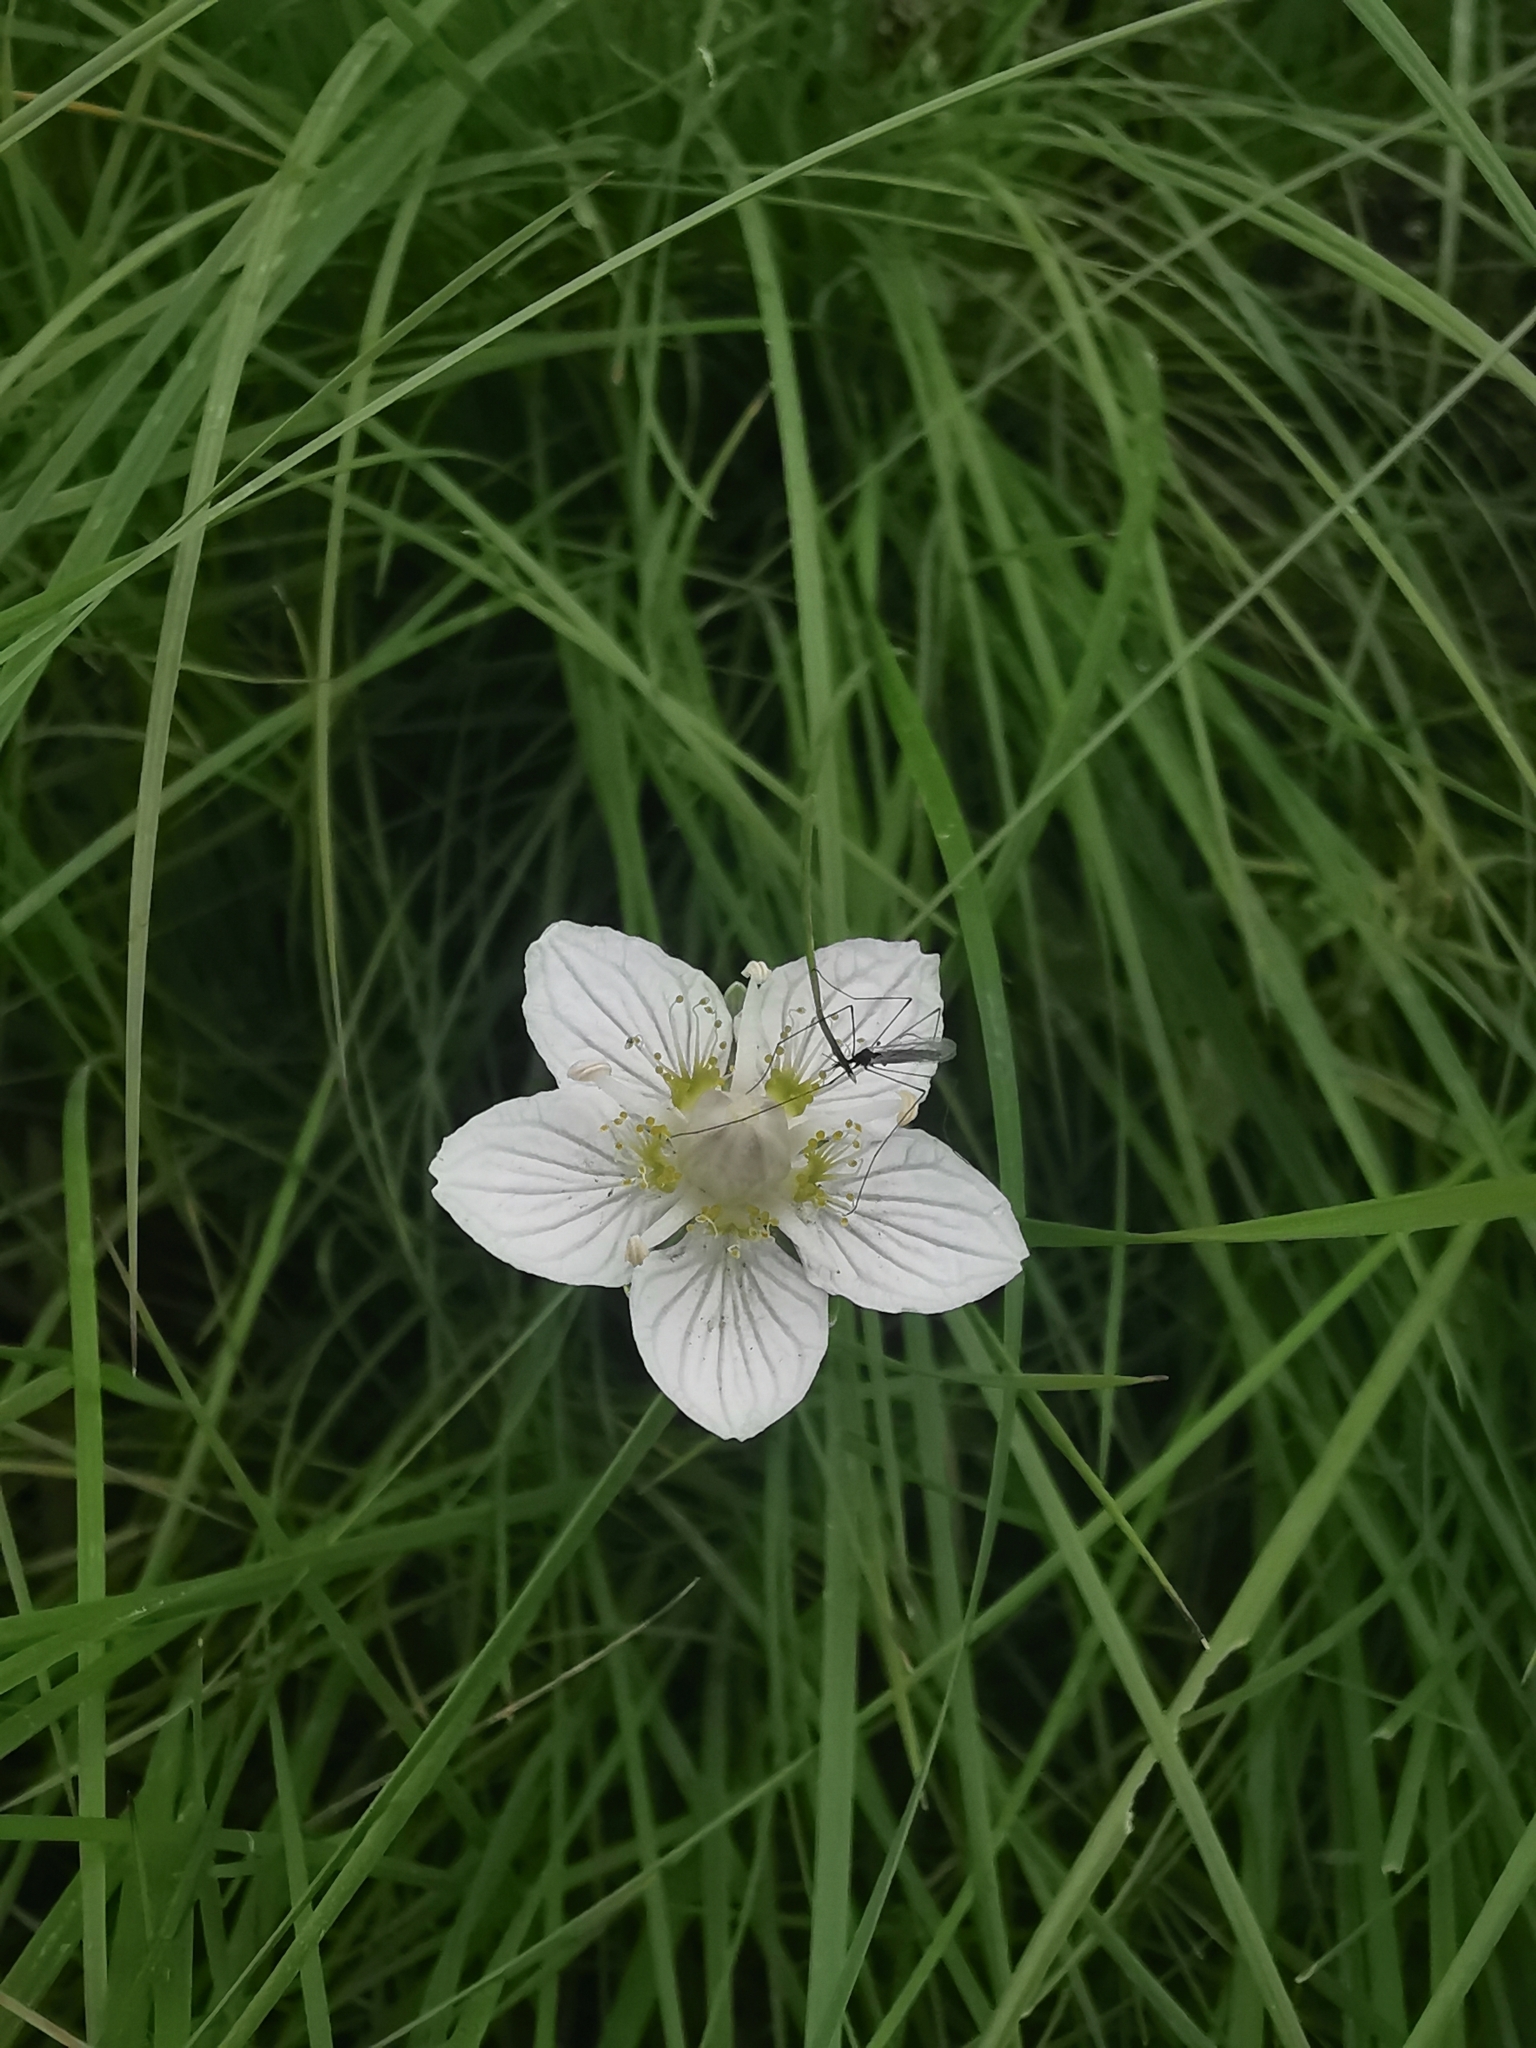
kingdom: Plantae
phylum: Tracheophyta
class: Magnoliopsida
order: Celastrales
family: Parnassiaceae
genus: Parnassia
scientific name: Parnassia palustris
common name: Grass-of-parnassus
